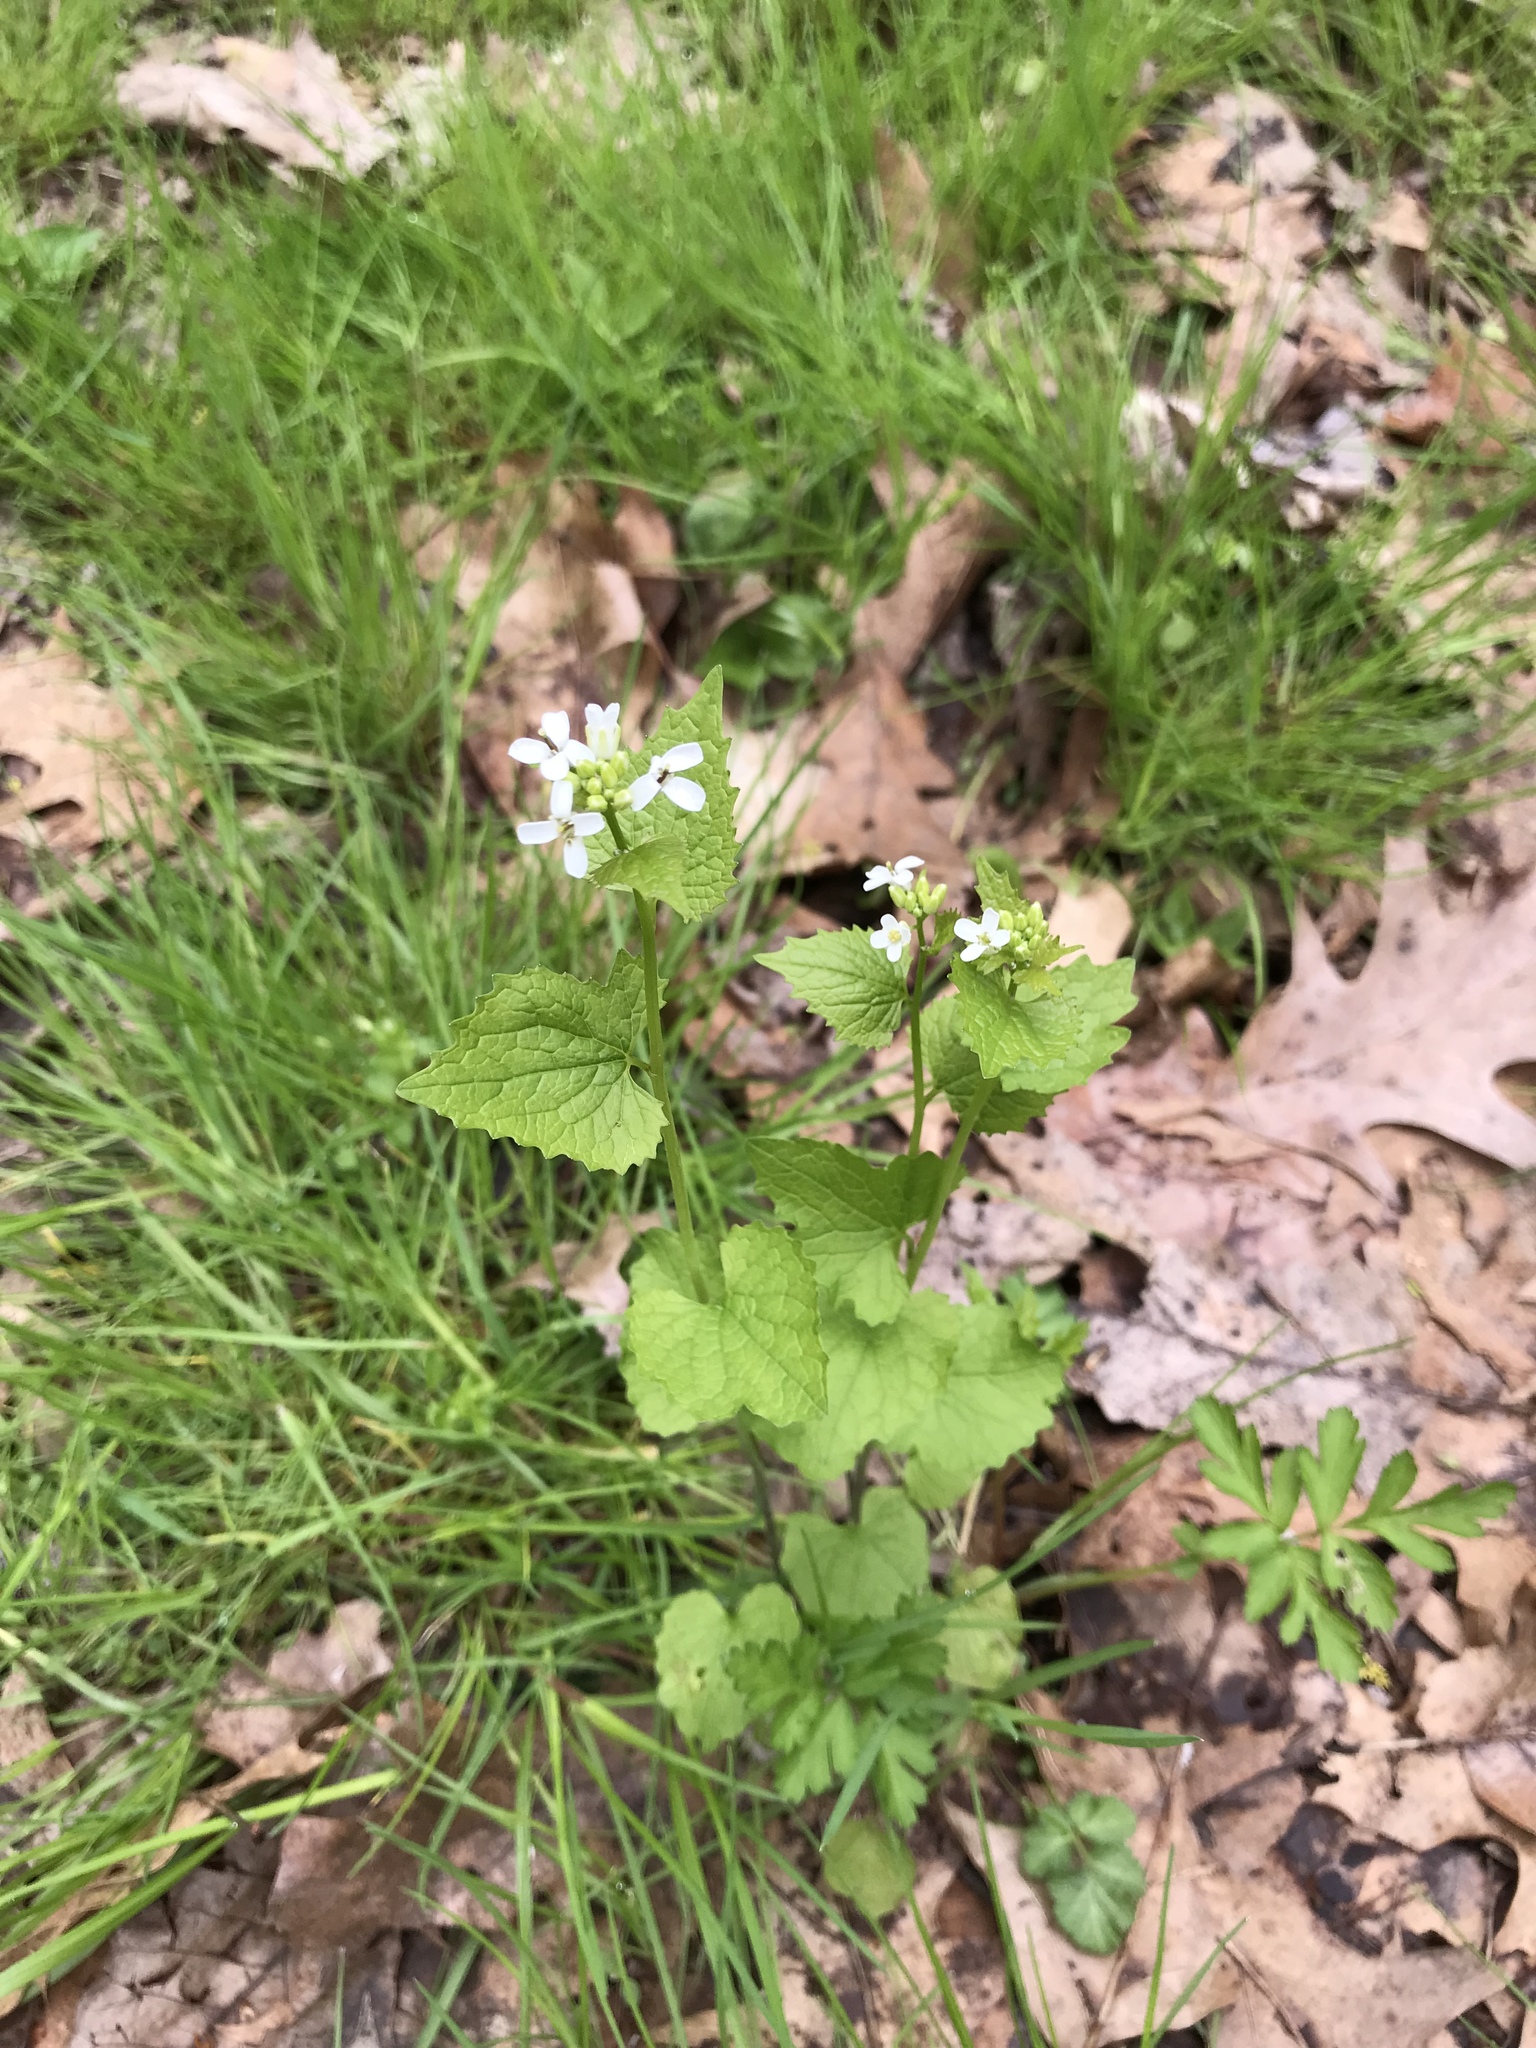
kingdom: Plantae
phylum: Tracheophyta
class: Magnoliopsida
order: Brassicales
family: Brassicaceae
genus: Alliaria
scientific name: Alliaria petiolata
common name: Garlic mustard
